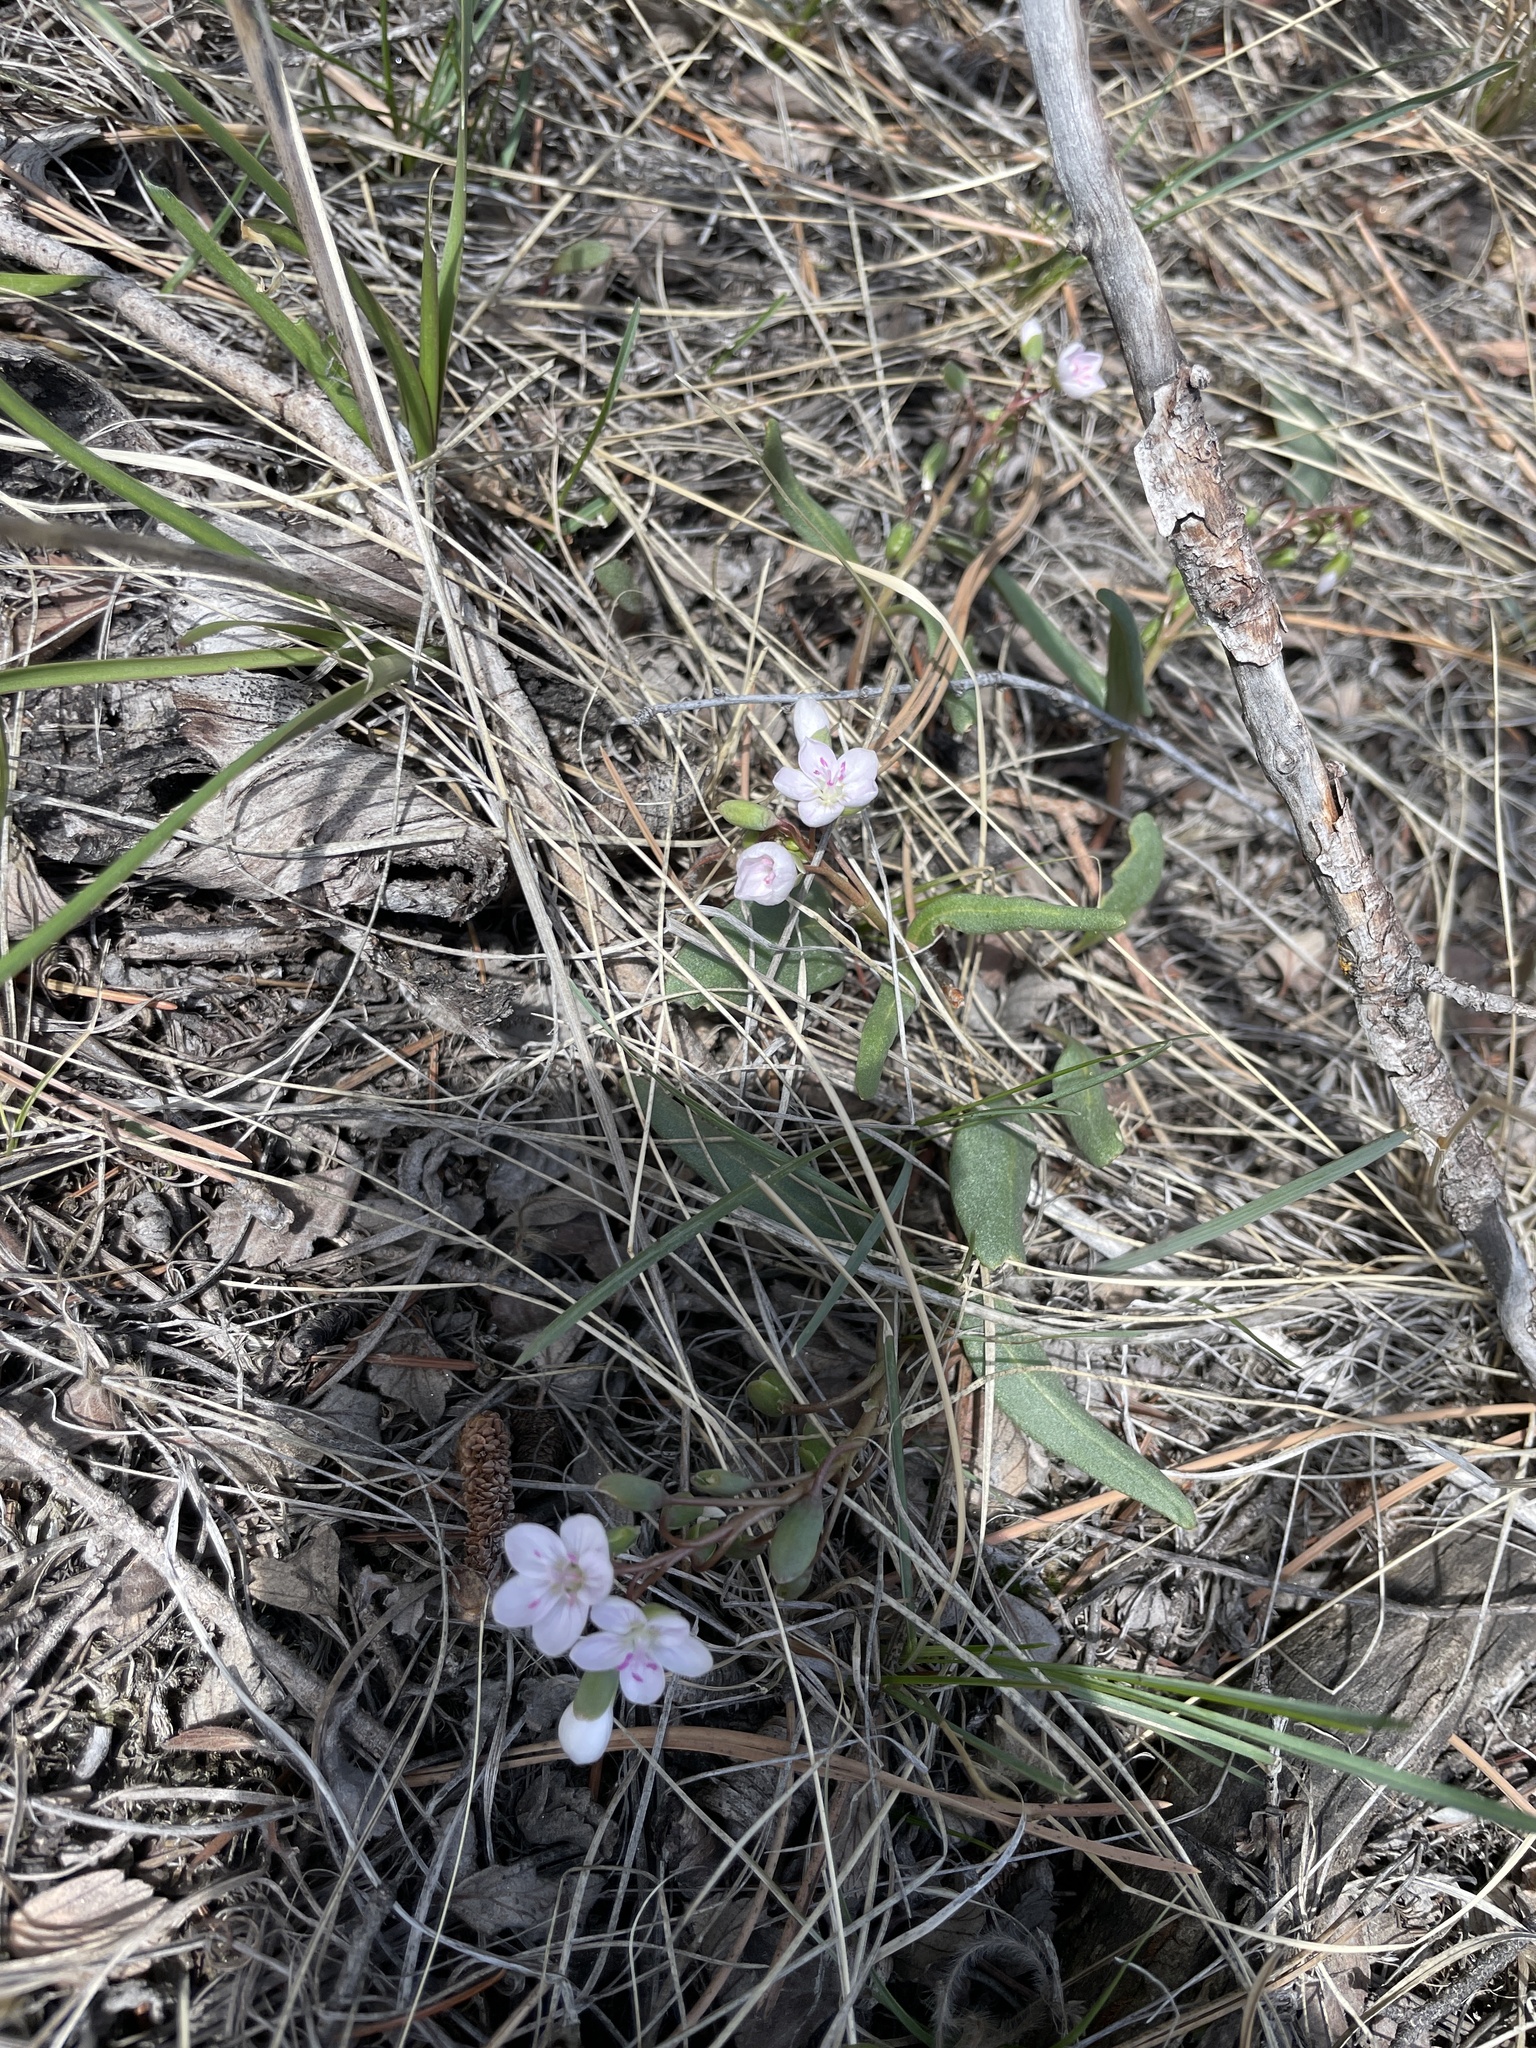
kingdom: Plantae
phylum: Tracheophyta
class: Magnoliopsida
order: Caryophyllales
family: Montiaceae
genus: Claytonia
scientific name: Claytonia rosea
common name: Rocky mountain spring-beauty
